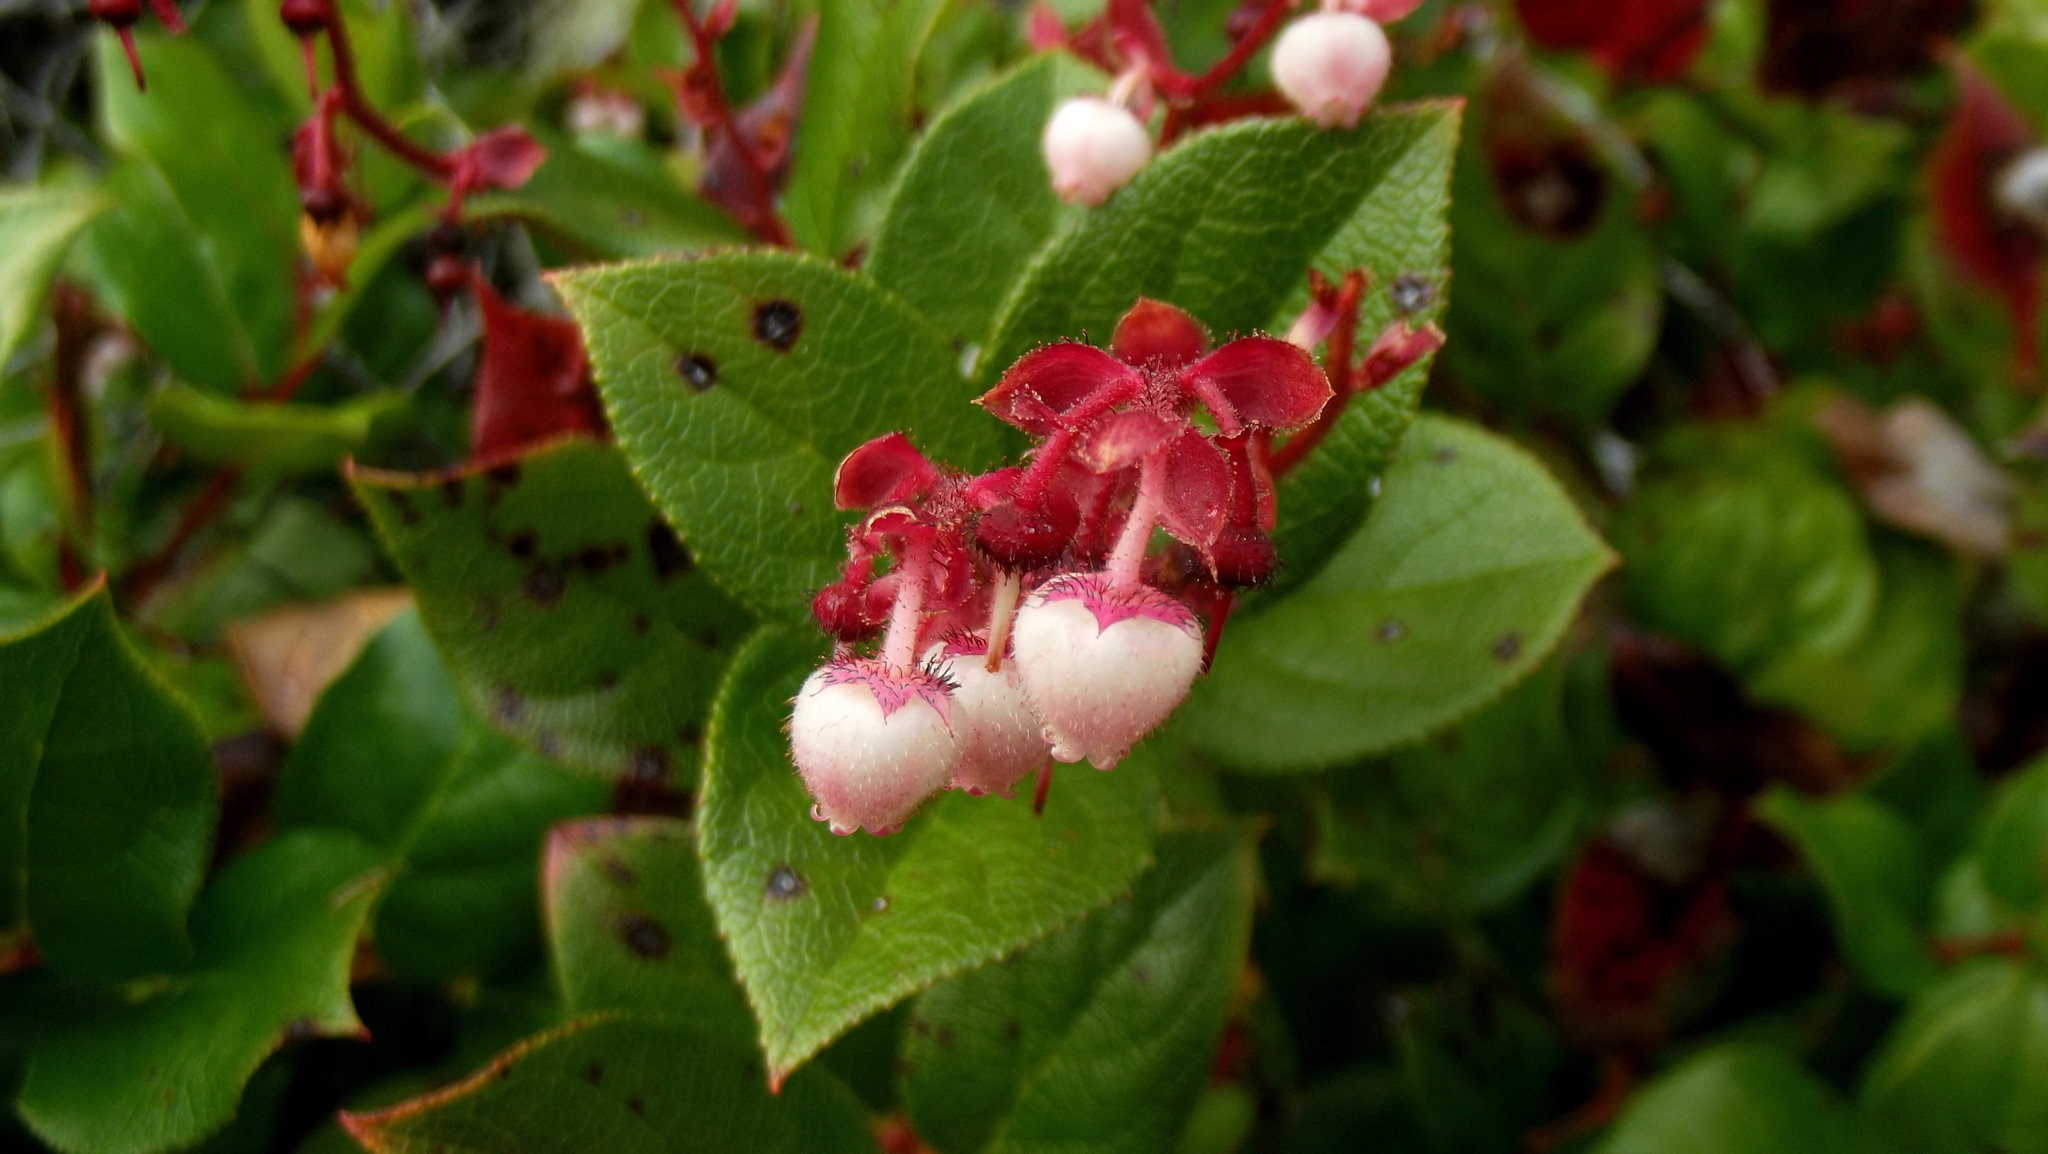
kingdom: Plantae
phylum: Tracheophyta
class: Magnoliopsida
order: Ericales
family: Ericaceae
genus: Gaultheria
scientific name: Gaultheria shallon
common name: Shallon
